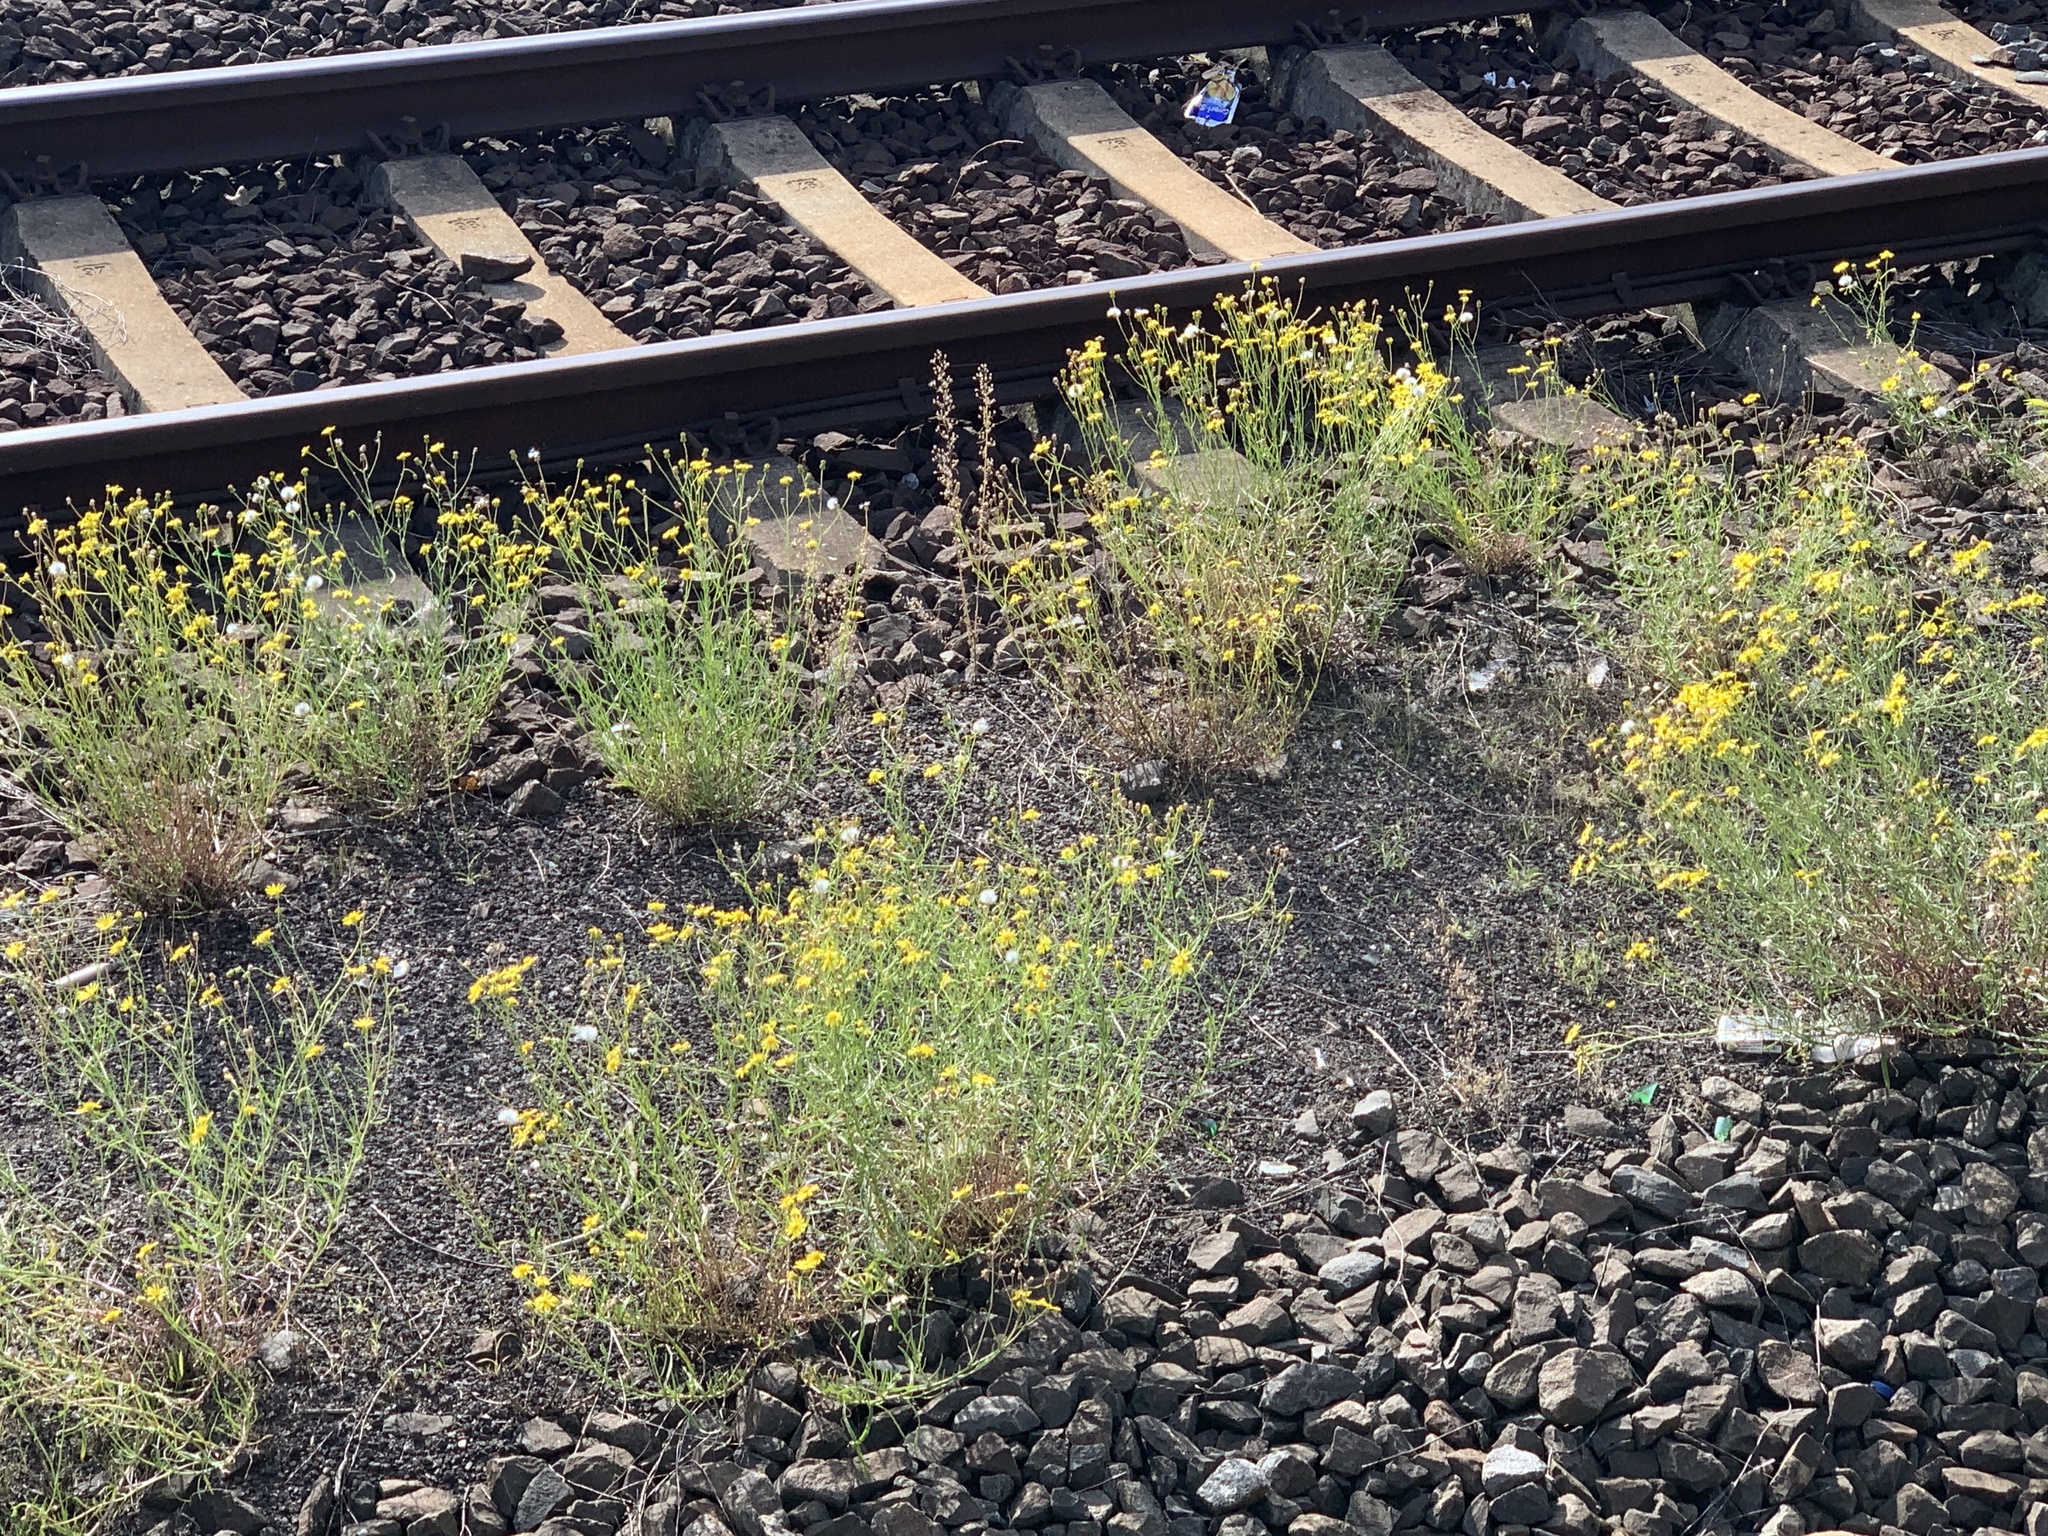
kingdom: Plantae
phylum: Tracheophyta
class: Magnoliopsida
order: Asterales
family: Asteraceae
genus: Senecio
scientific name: Senecio inaequidens
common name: Narrow-leaved ragwort
